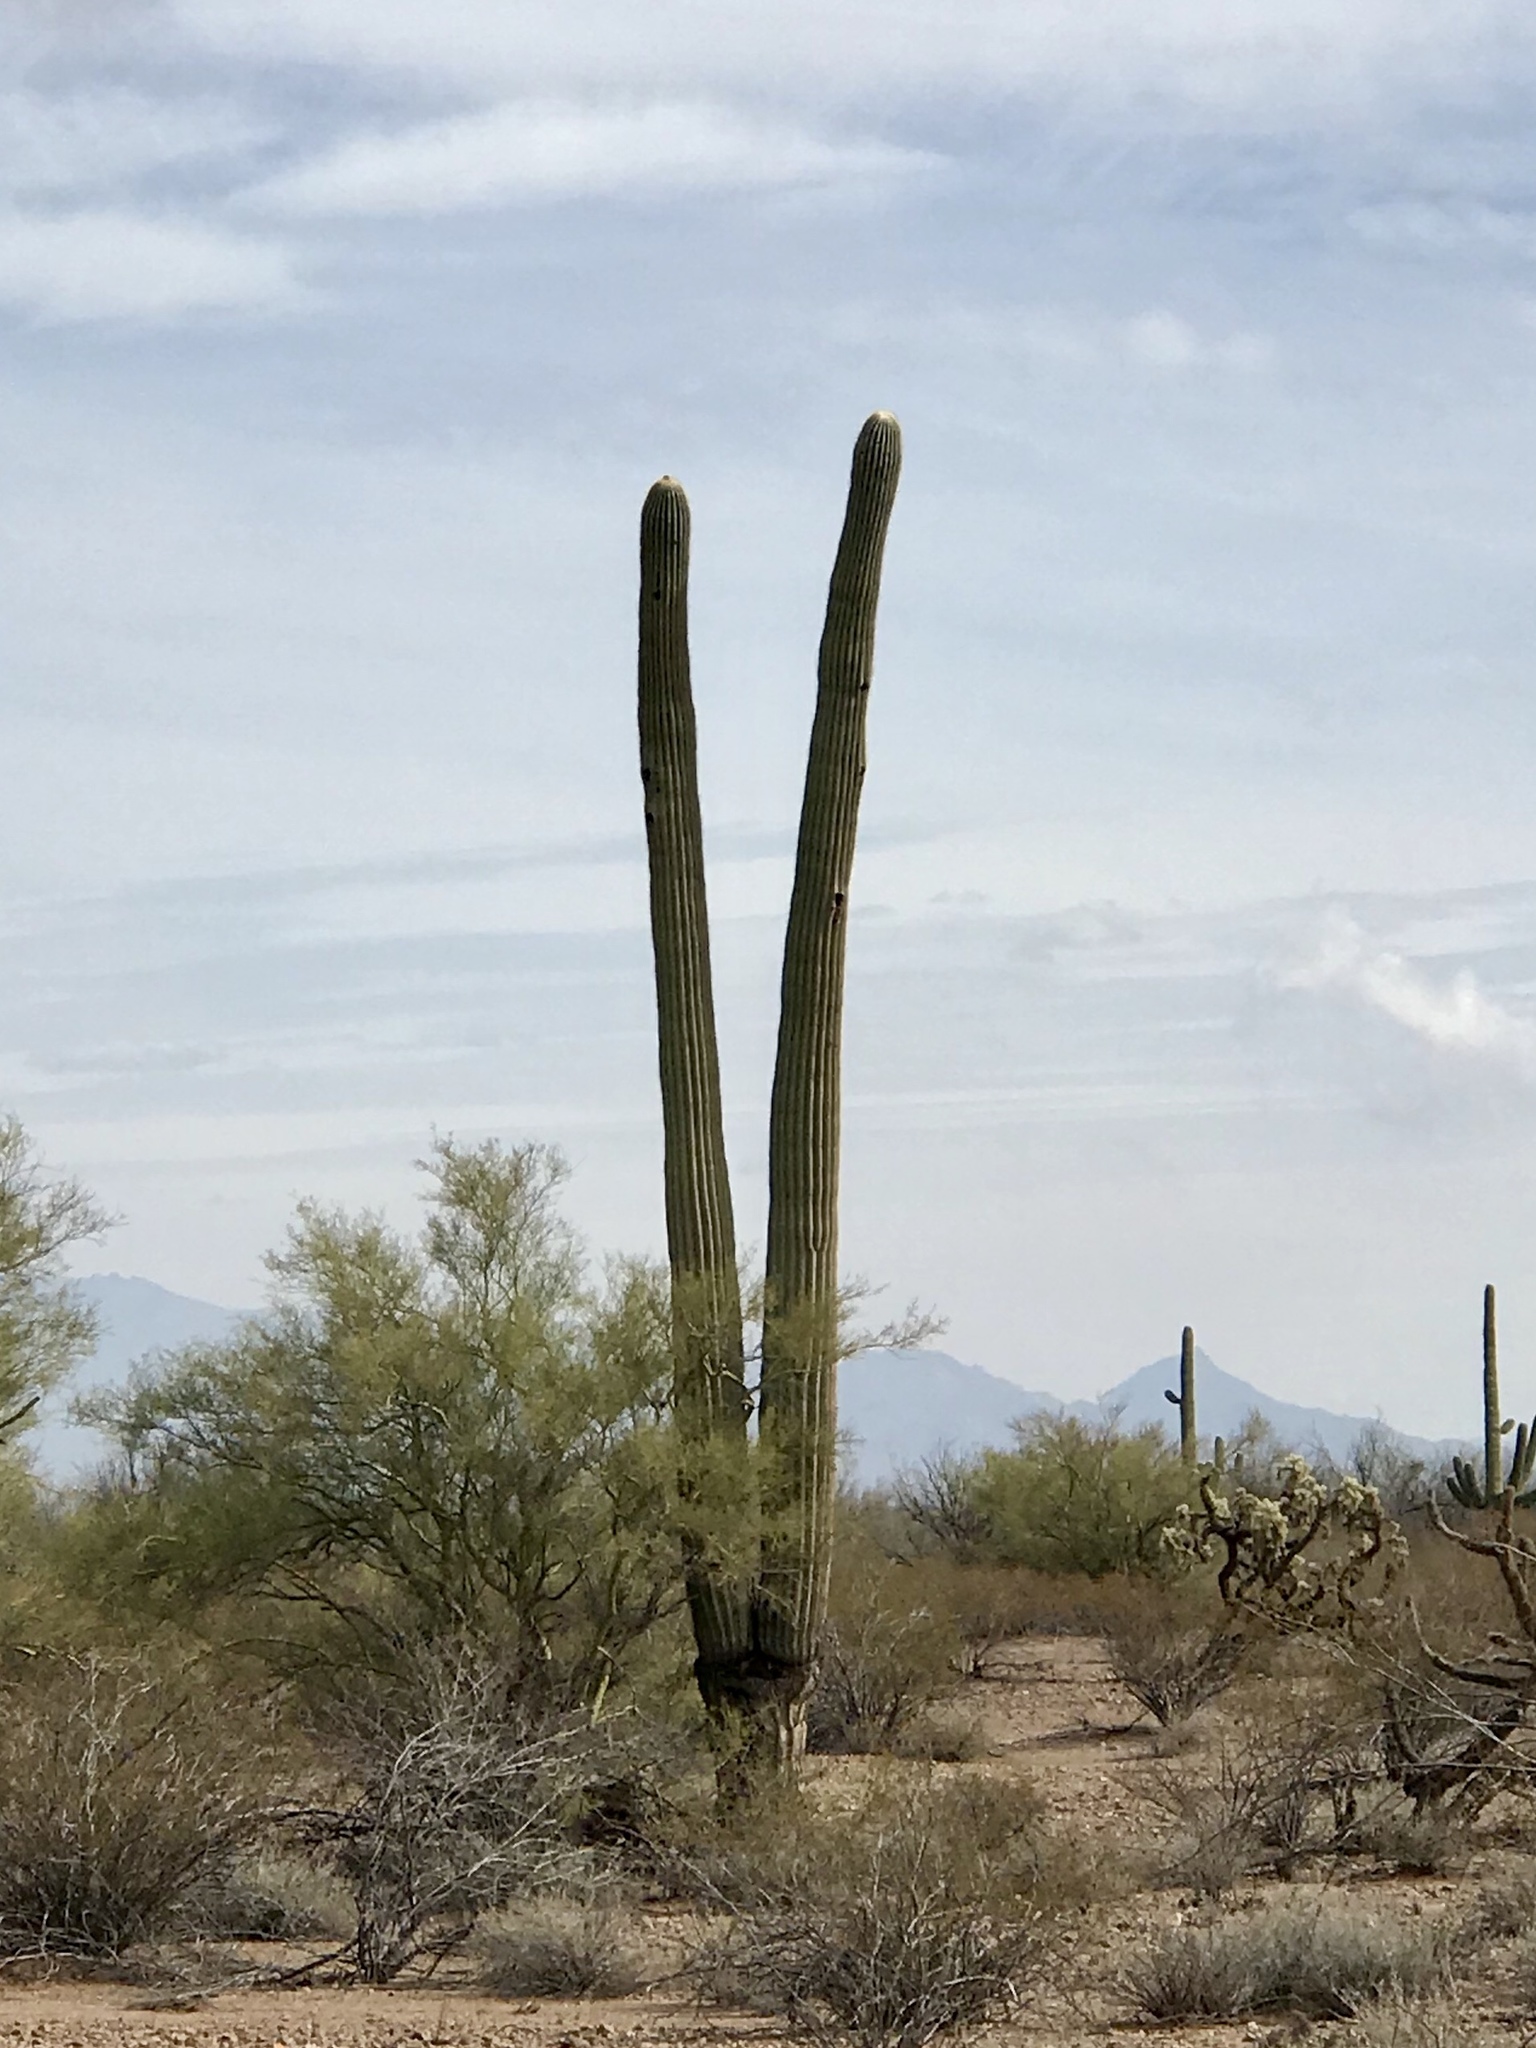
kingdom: Plantae
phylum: Tracheophyta
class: Magnoliopsida
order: Caryophyllales
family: Cactaceae
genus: Carnegiea
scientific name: Carnegiea gigantea
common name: Saguaro
